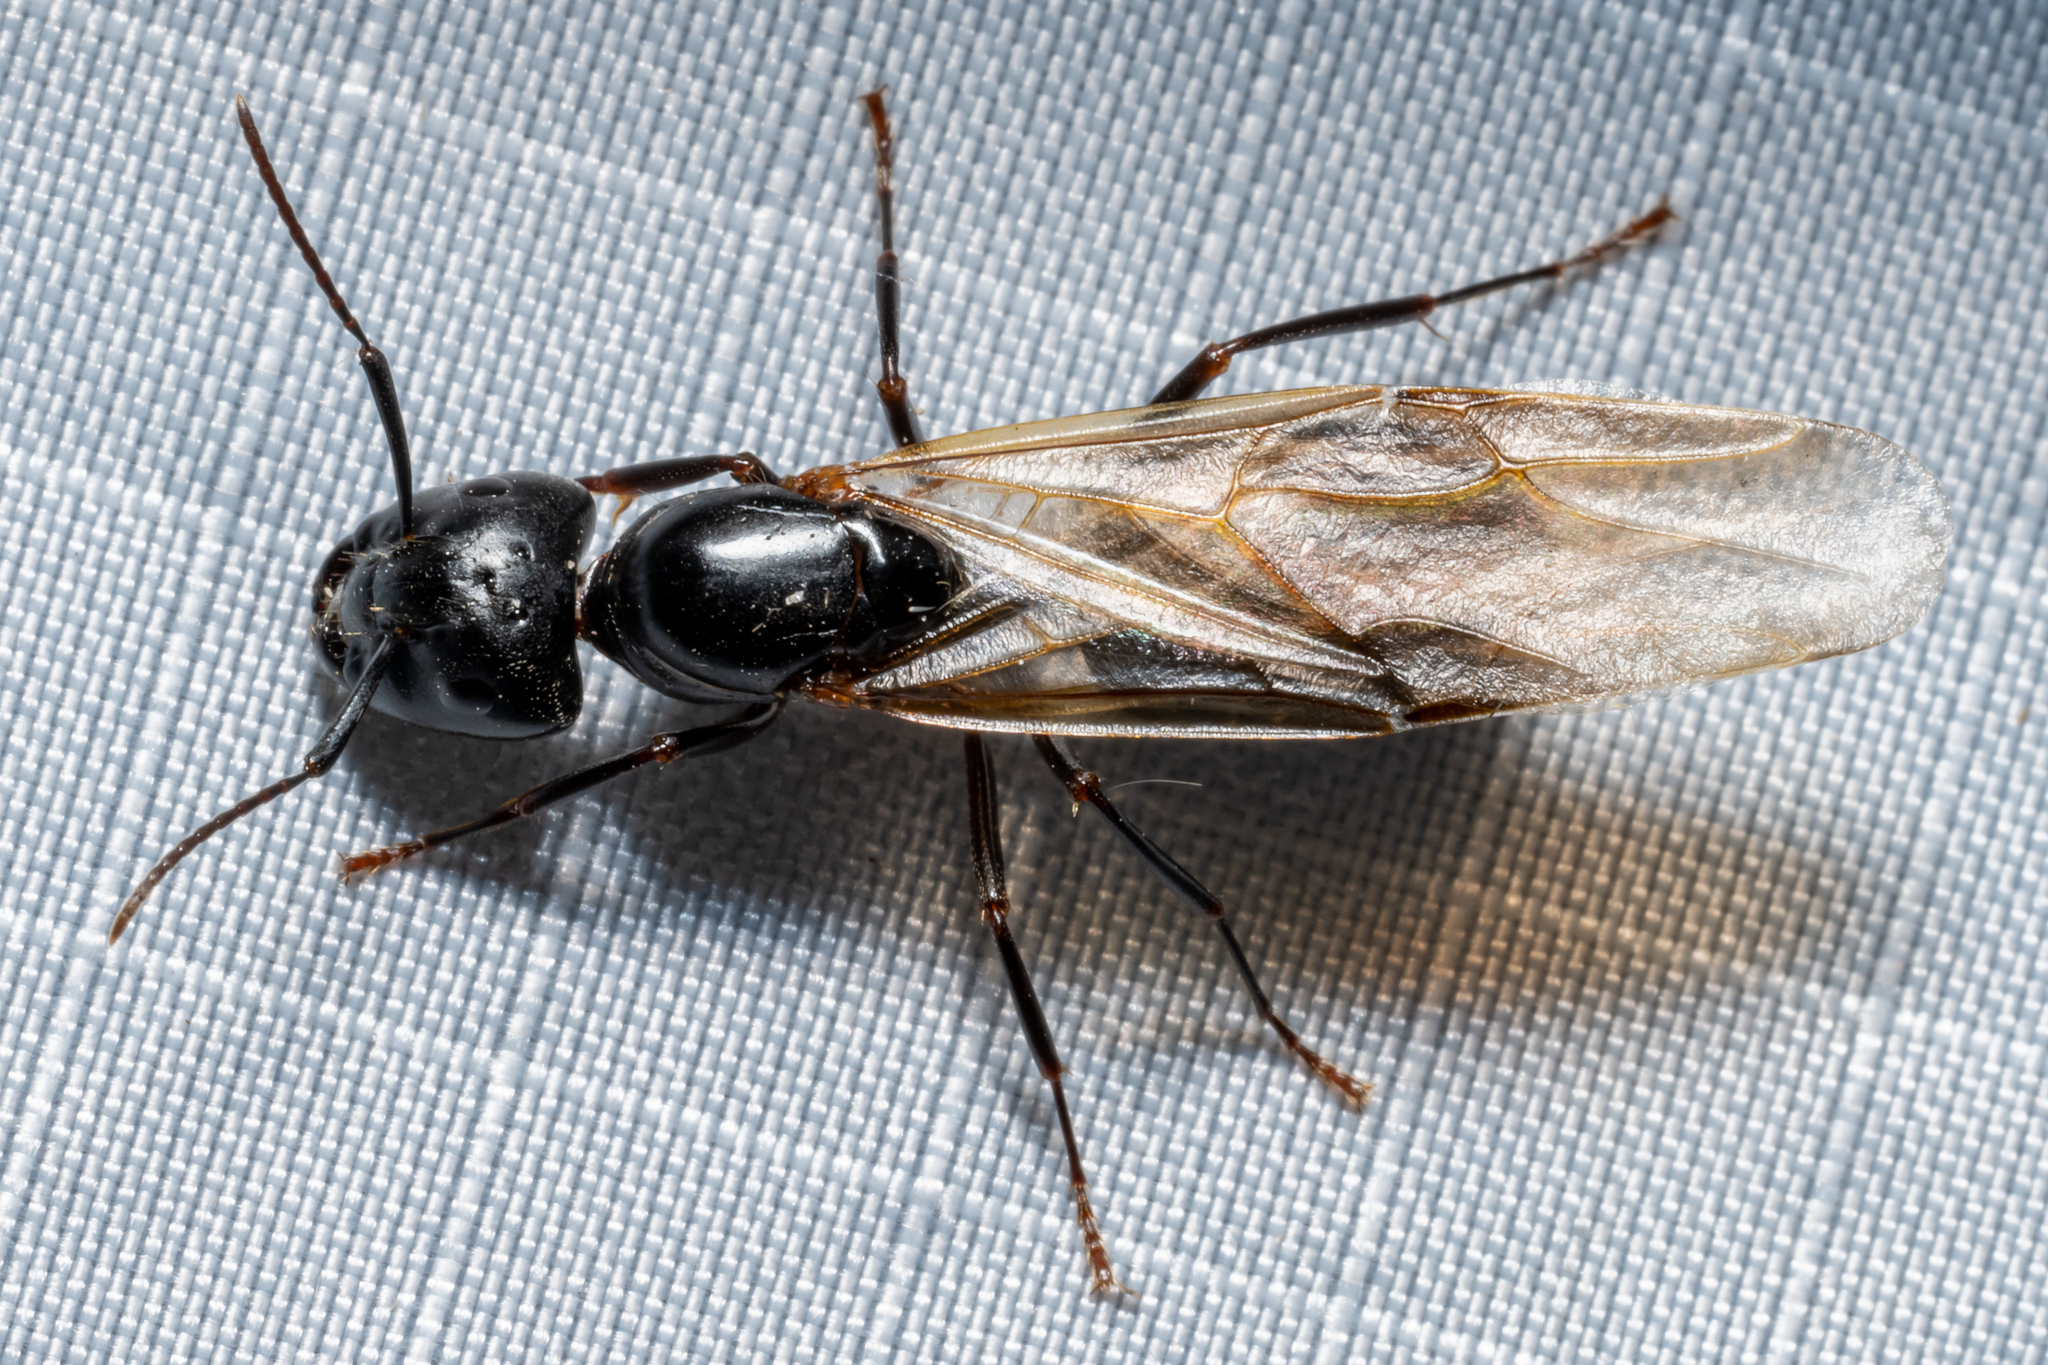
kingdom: Animalia
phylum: Arthropoda
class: Insecta
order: Hymenoptera
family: Formicidae
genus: Camponotus
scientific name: Camponotus pennsylvanicus
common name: Black carpenter ant
